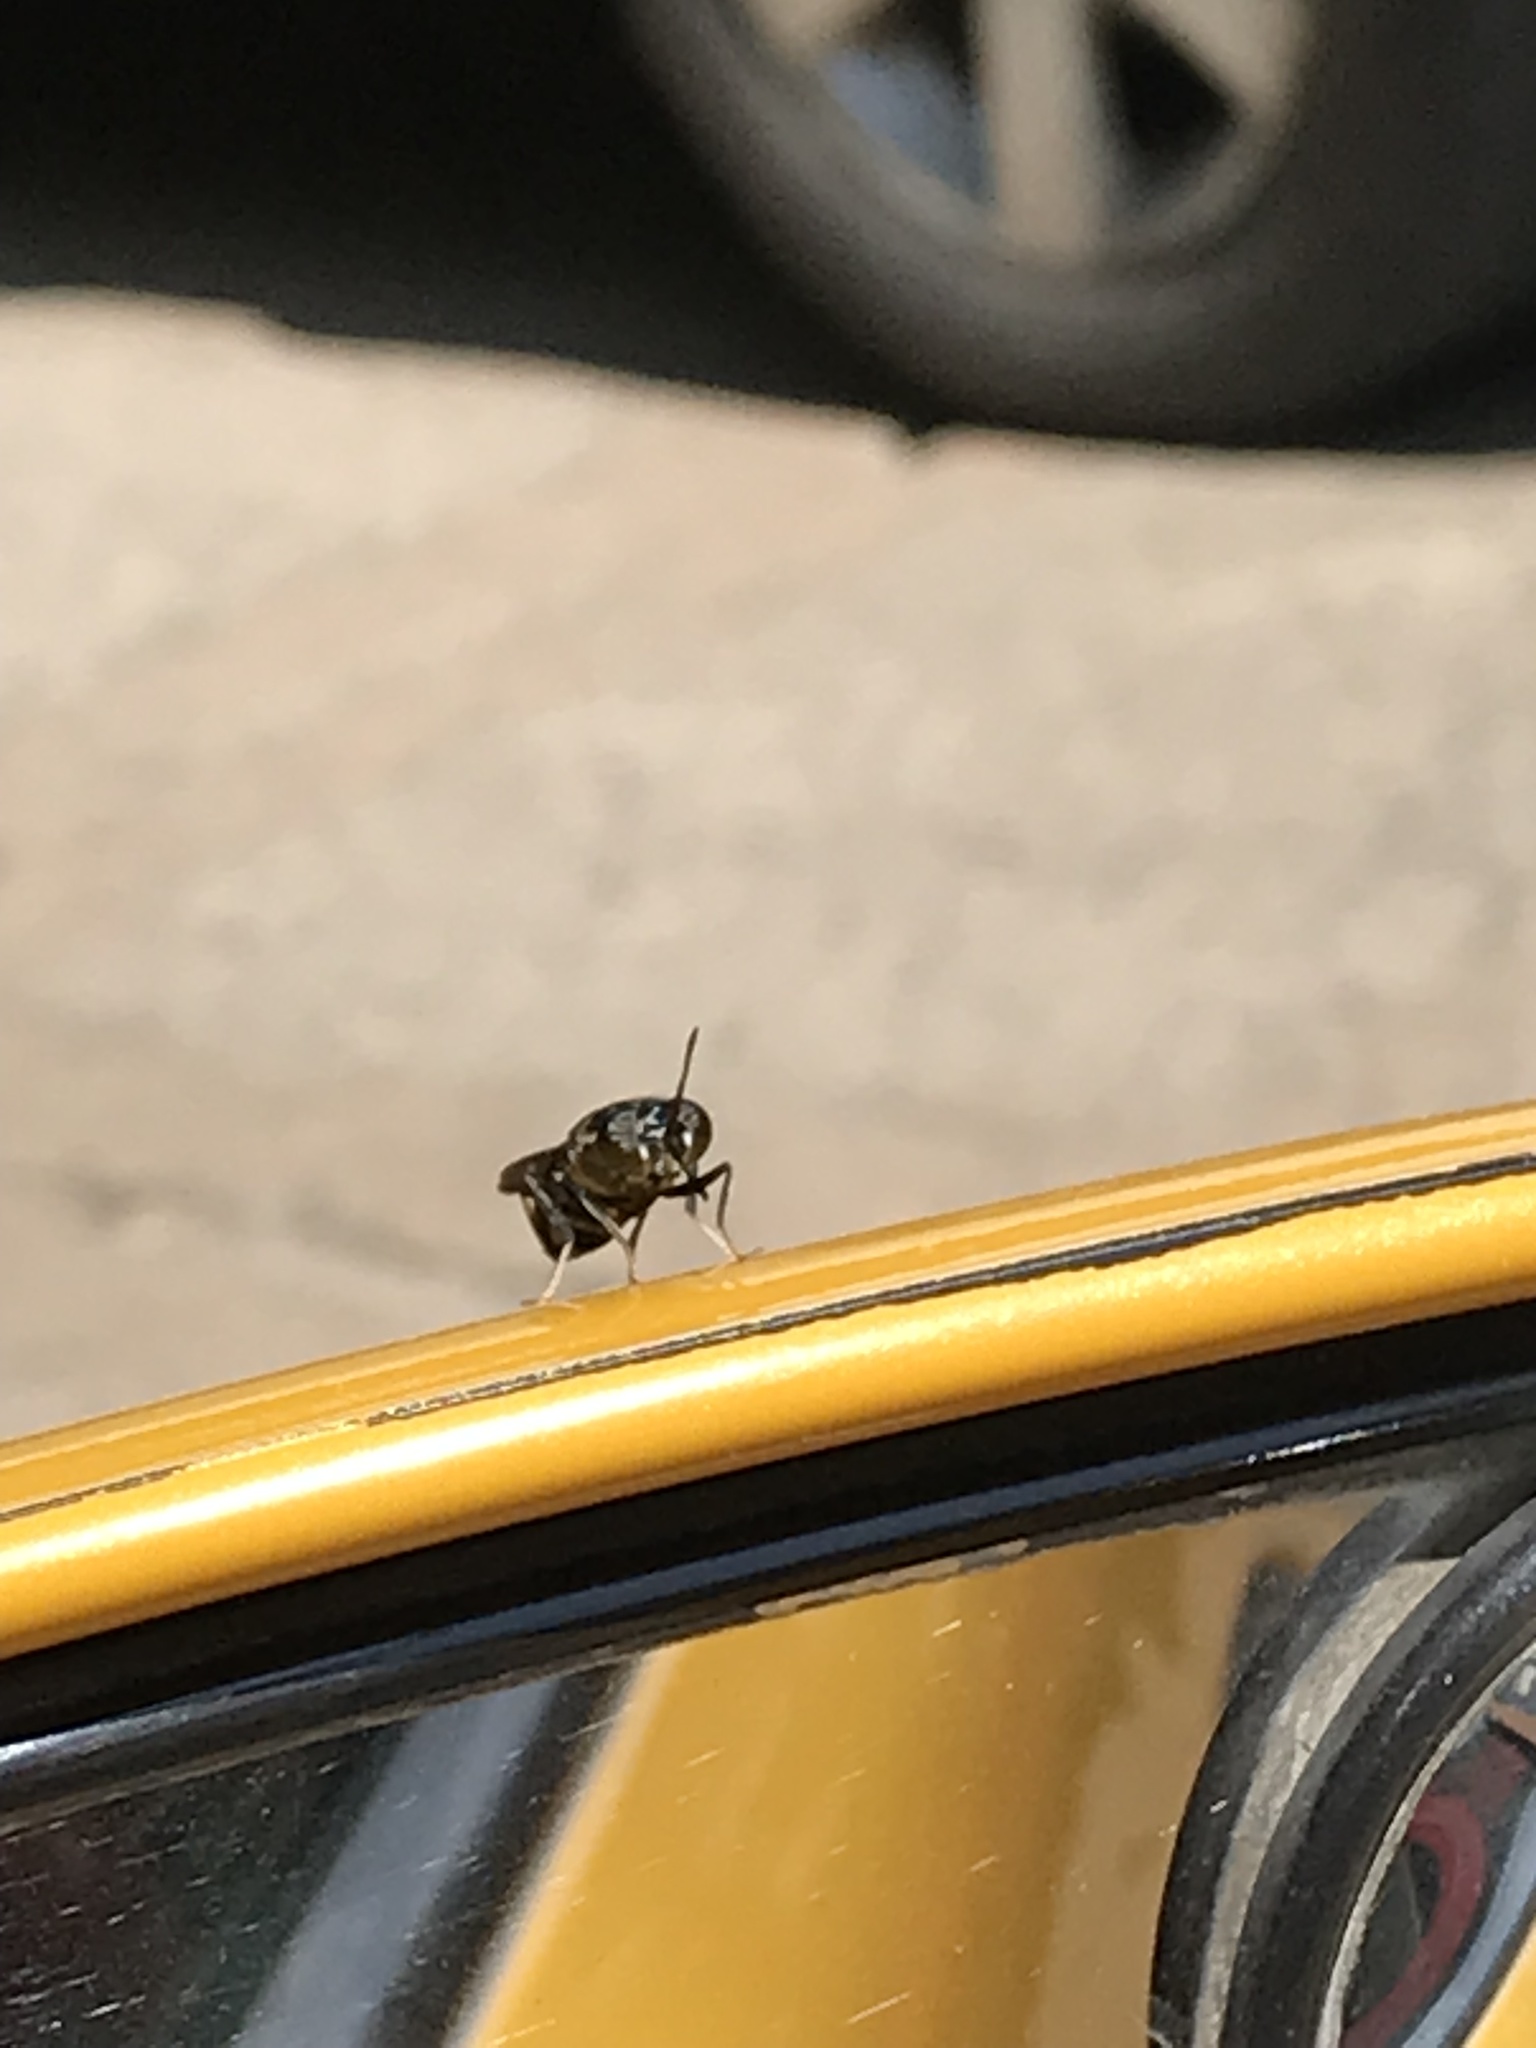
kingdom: Animalia
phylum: Arthropoda
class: Insecta
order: Diptera
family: Stratiomyidae
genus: Hermetia
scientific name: Hermetia illucens
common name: Black soldier fly
